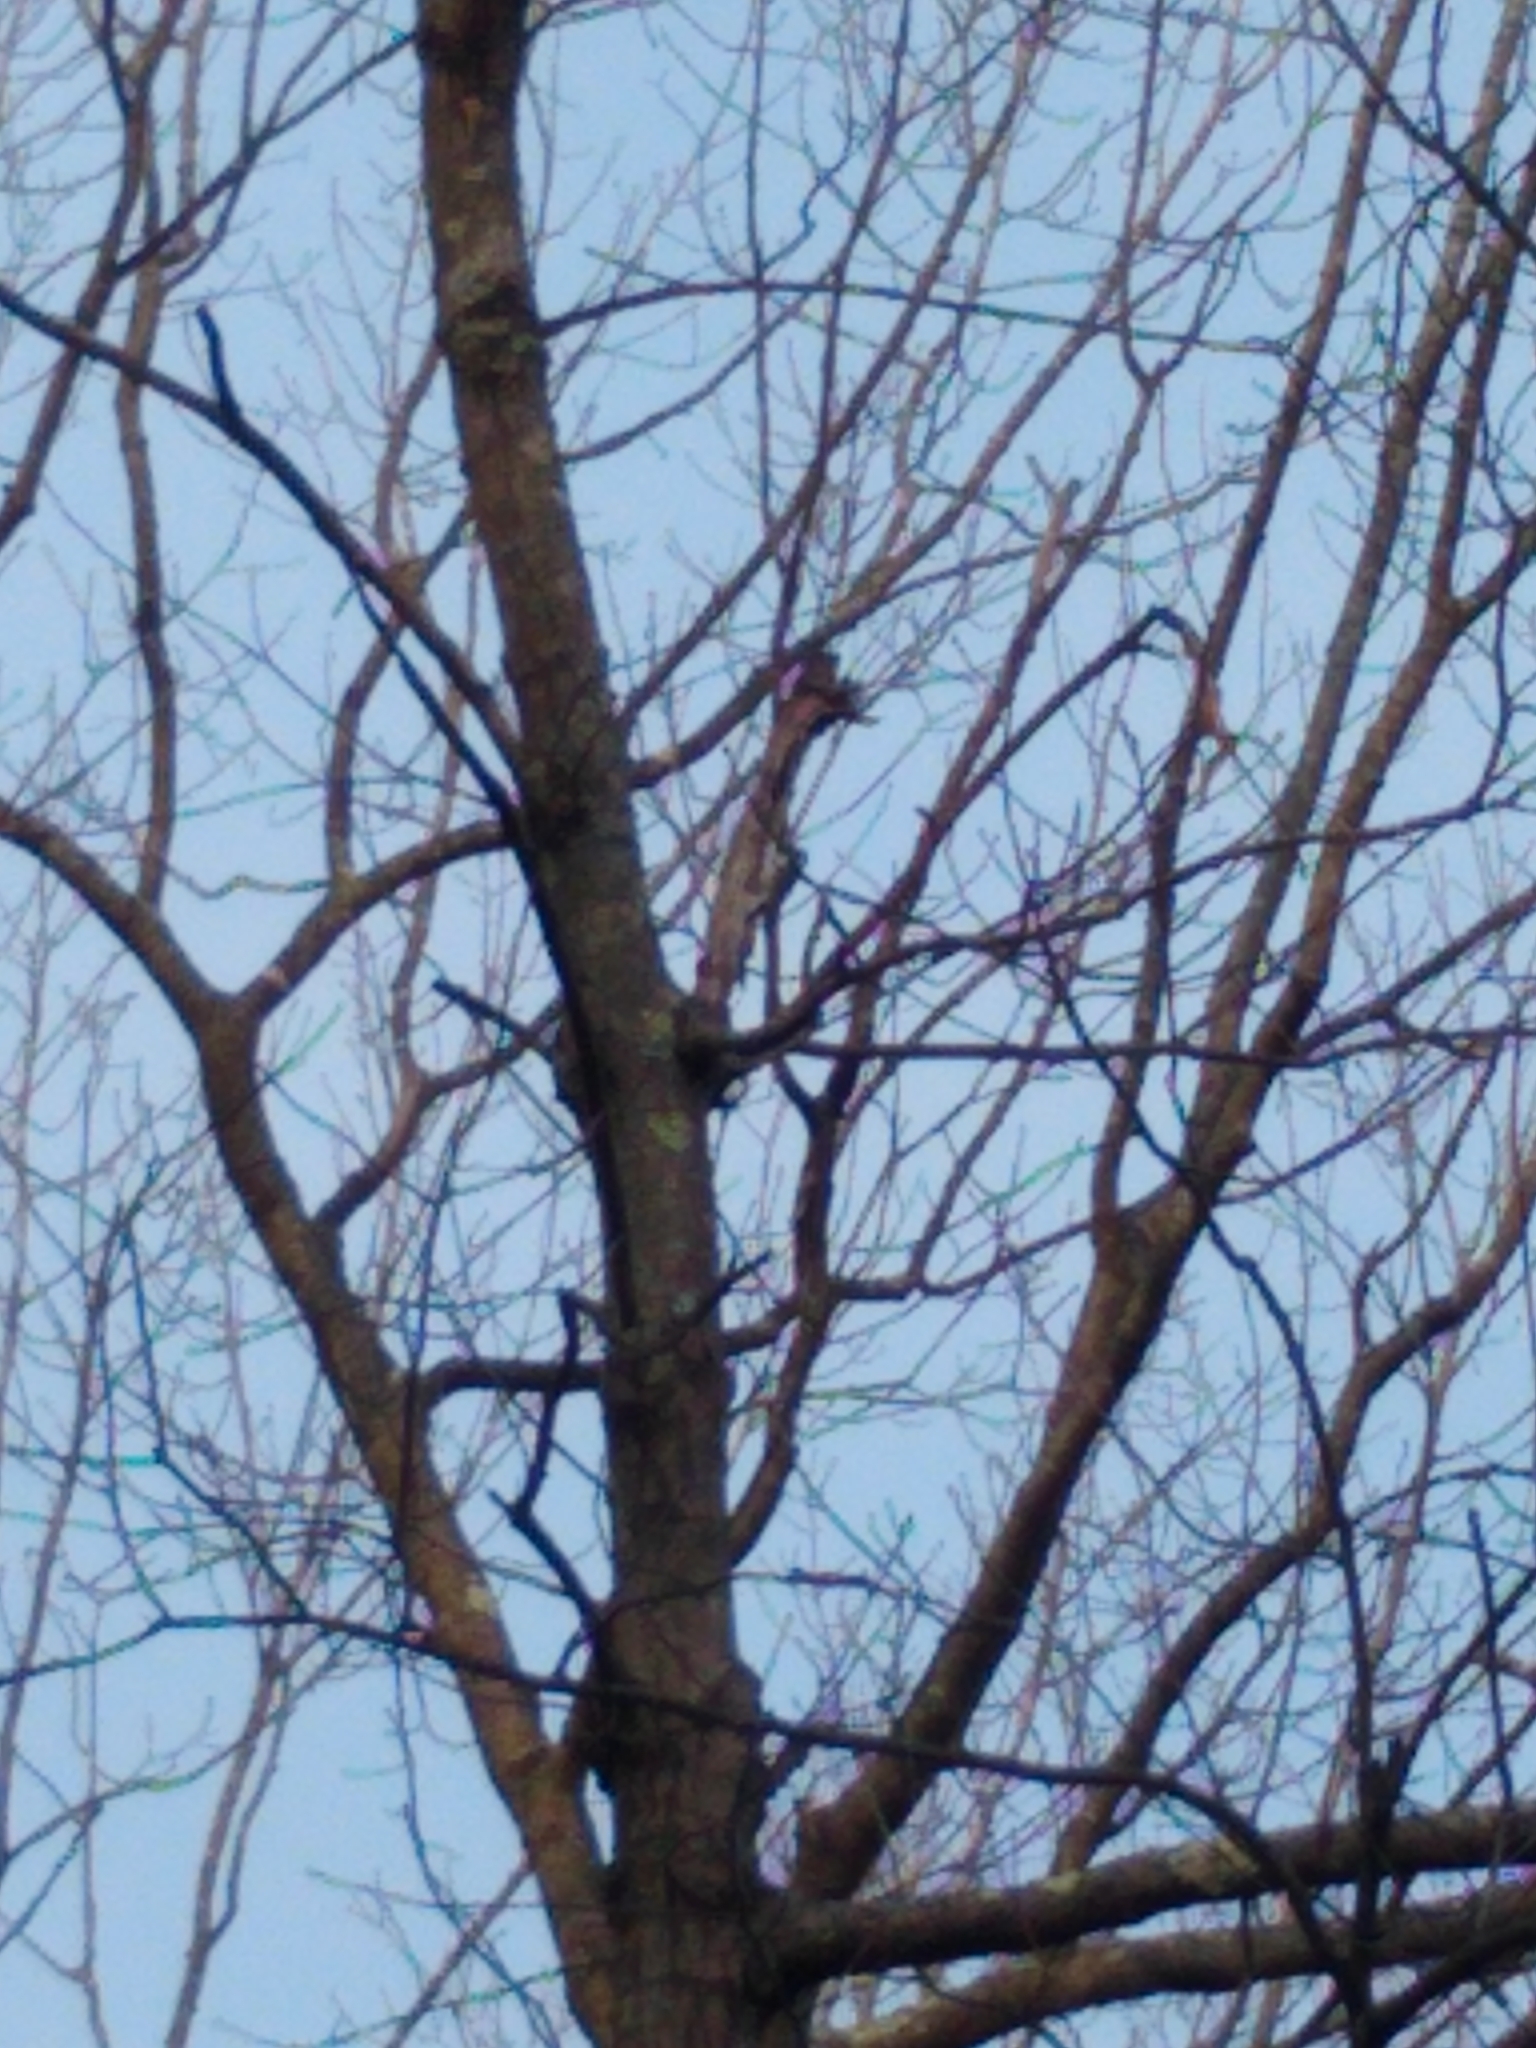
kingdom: Animalia
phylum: Chordata
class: Aves
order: Piciformes
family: Picidae
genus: Dryobates
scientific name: Dryobates pubescens
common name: Downy woodpecker
